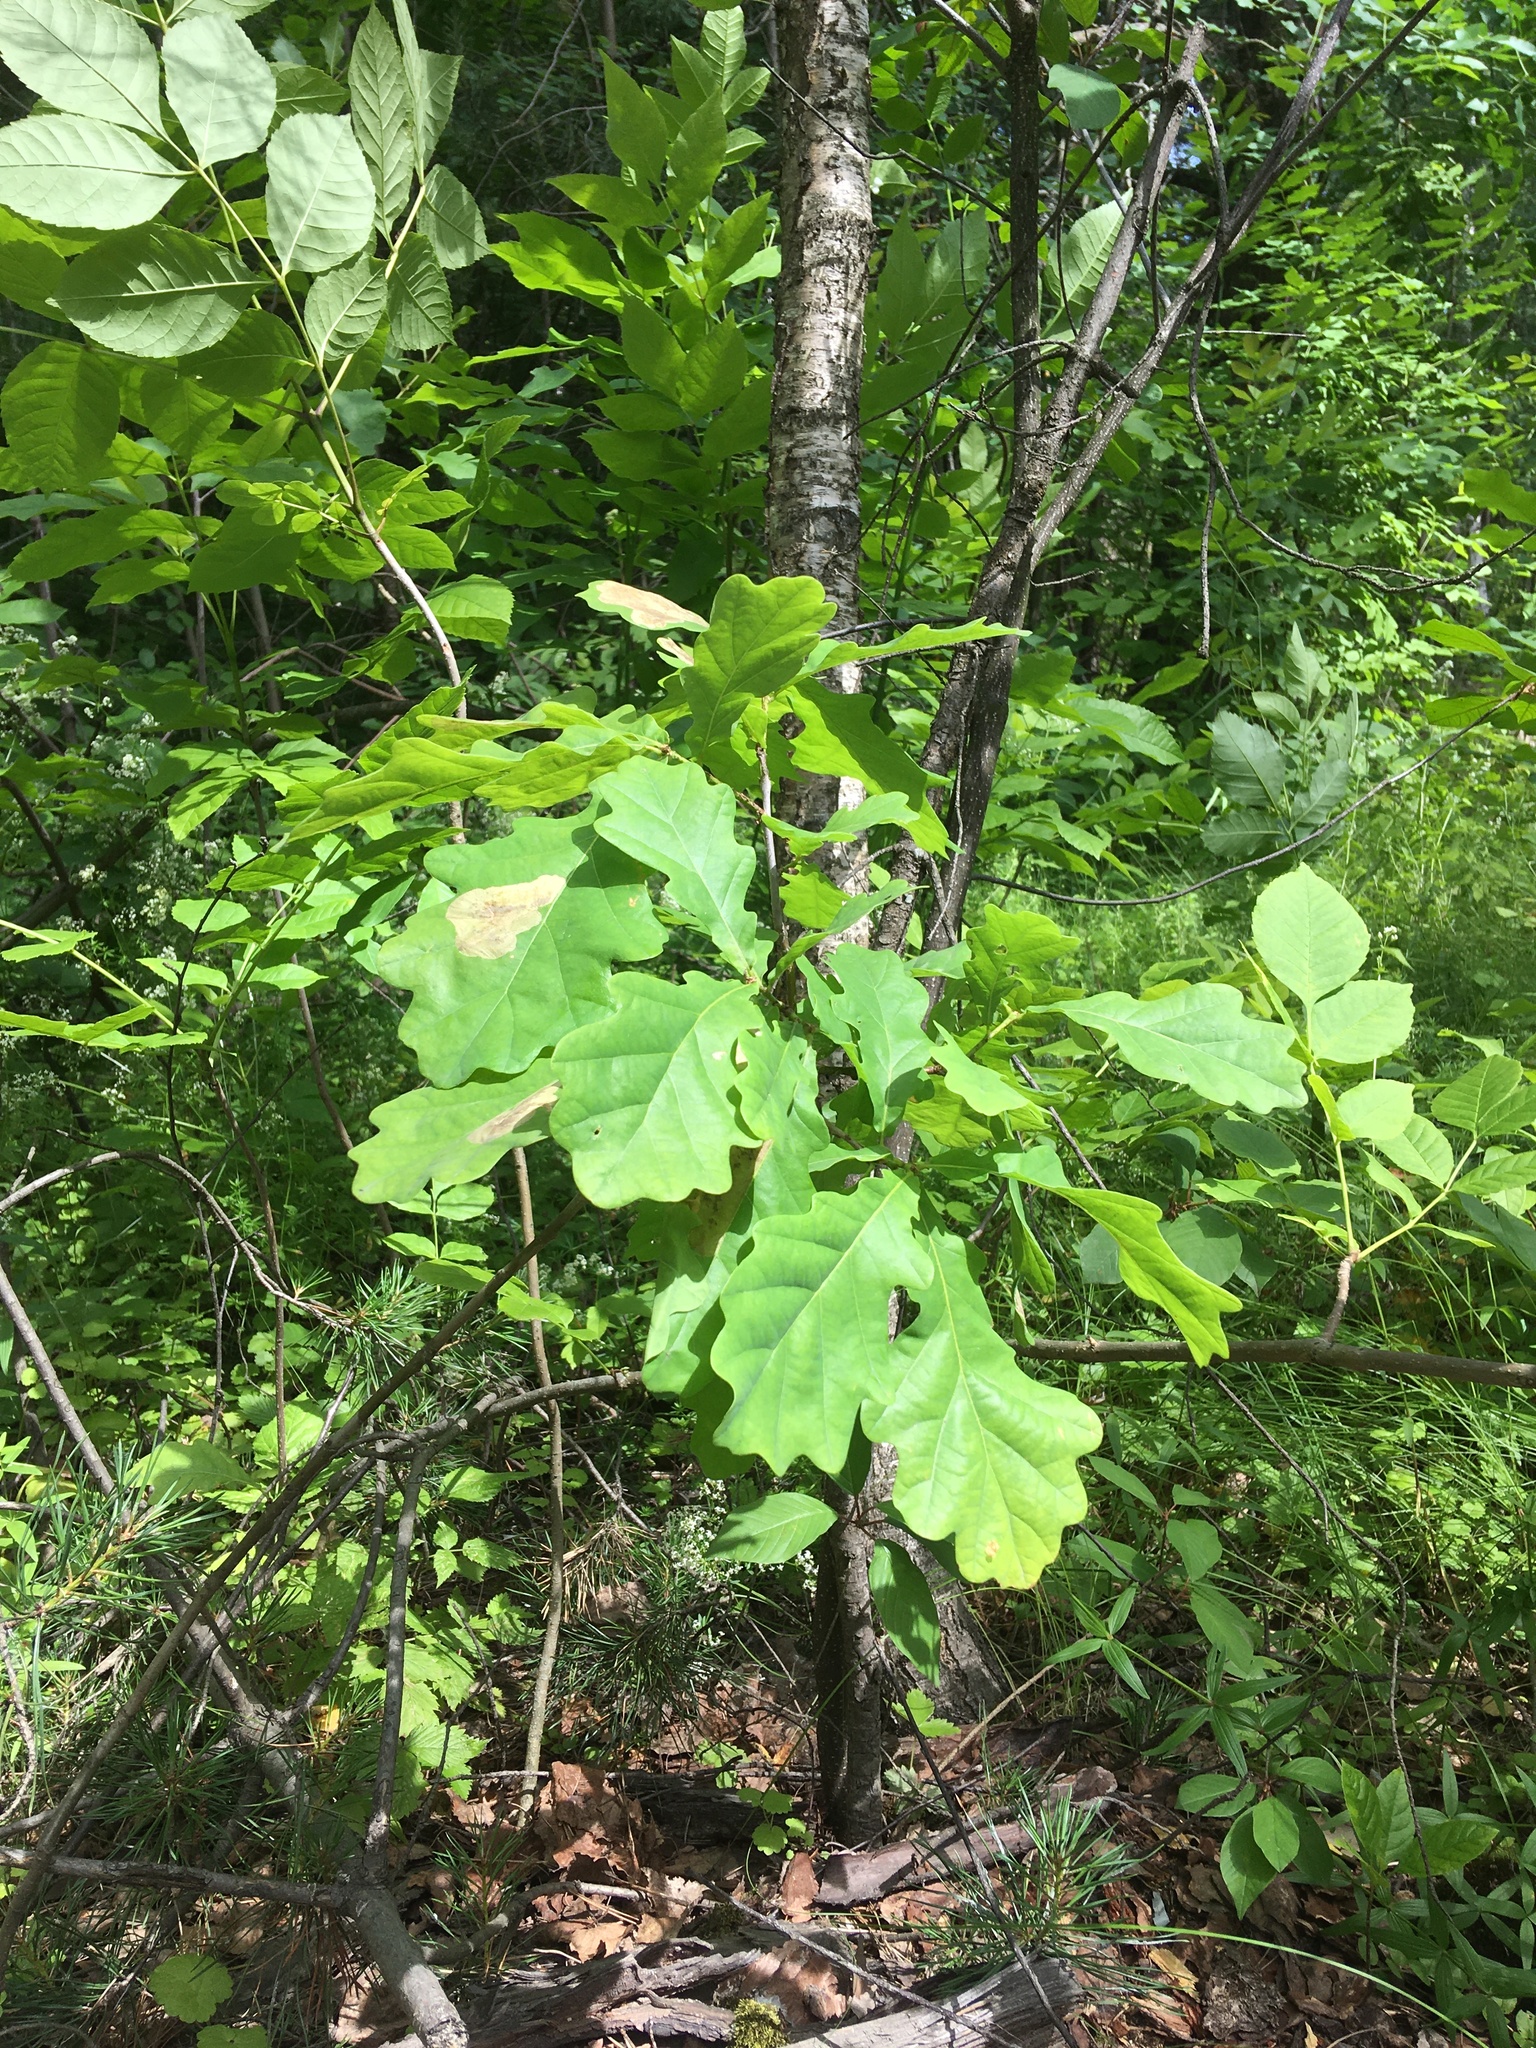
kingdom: Plantae
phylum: Tracheophyta
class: Magnoliopsida
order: Fagales
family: Fagaceae
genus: Quercus
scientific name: Quercus robur
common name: Pedunculate oak
